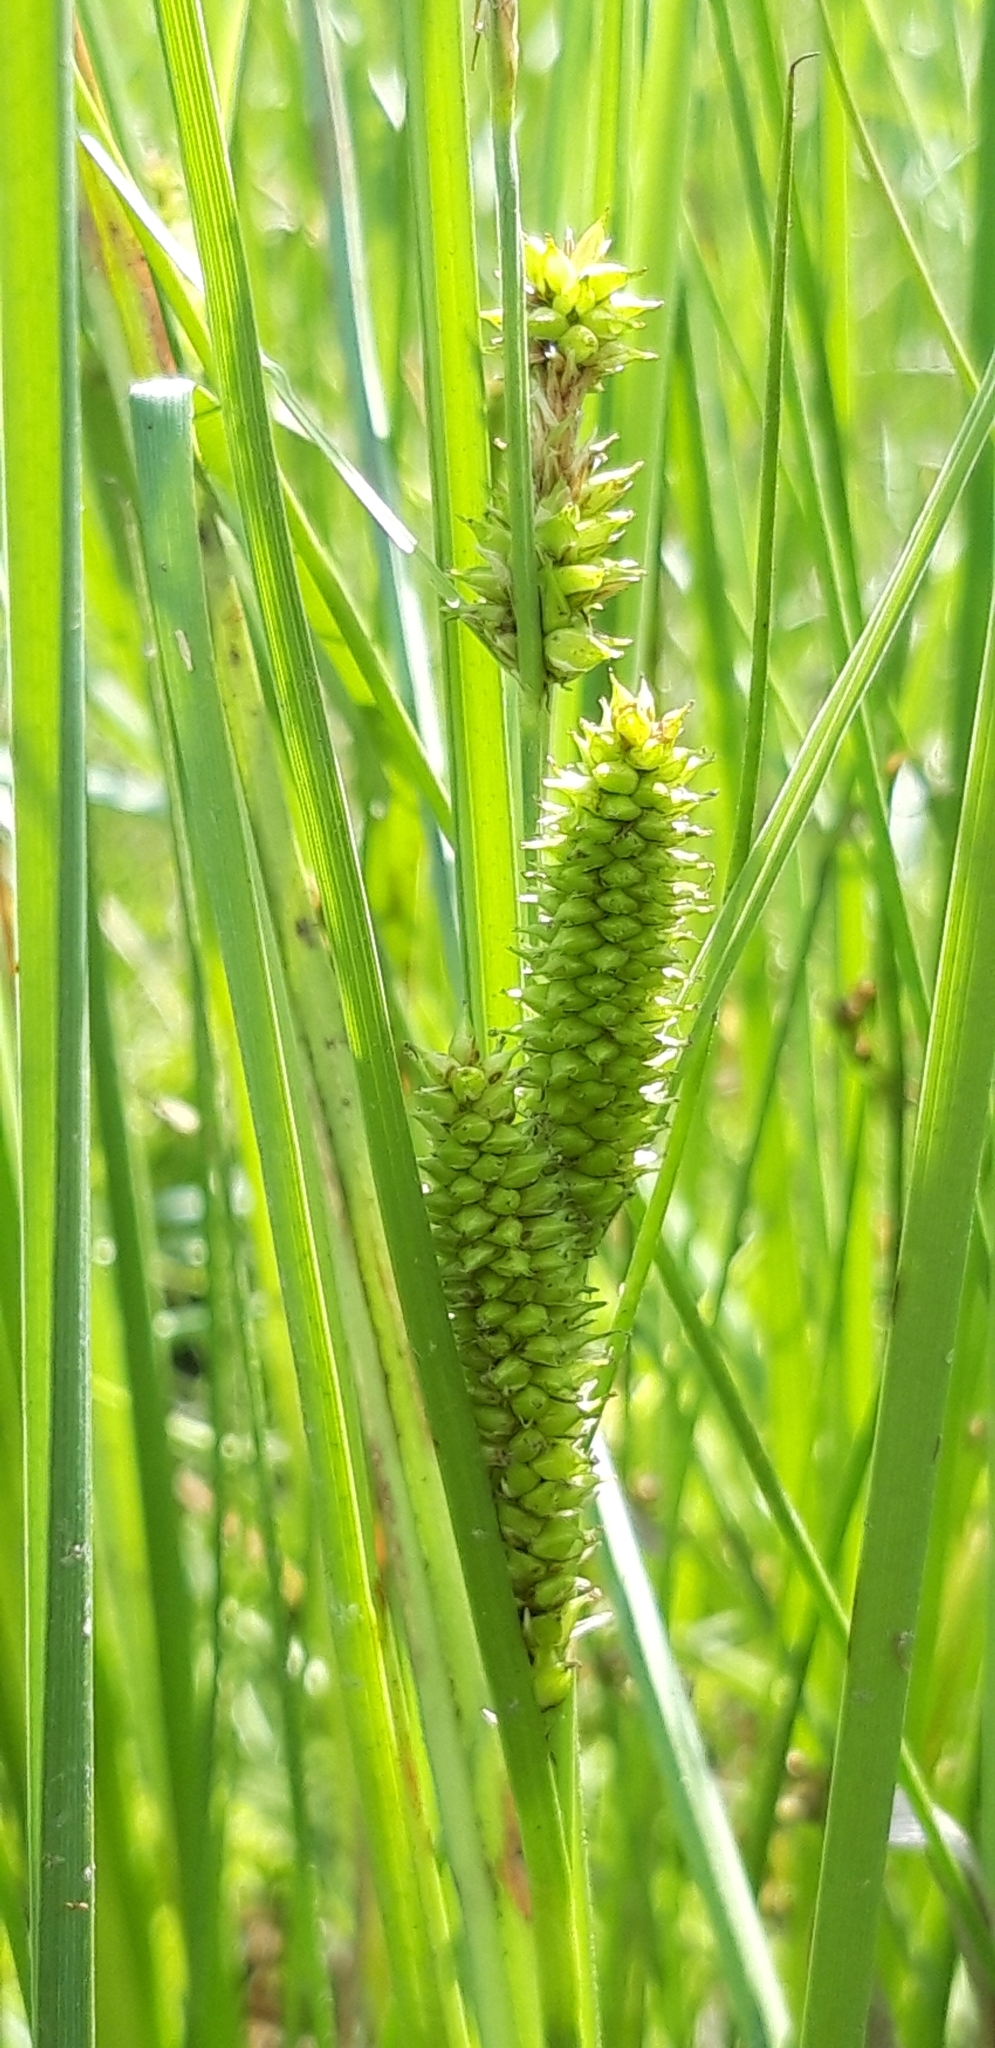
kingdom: Plantae
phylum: Tracheophyta
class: Liliopsida
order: Poales
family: Cyperaceae
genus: Carex
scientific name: Carex rostrata
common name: Bottle sedge
